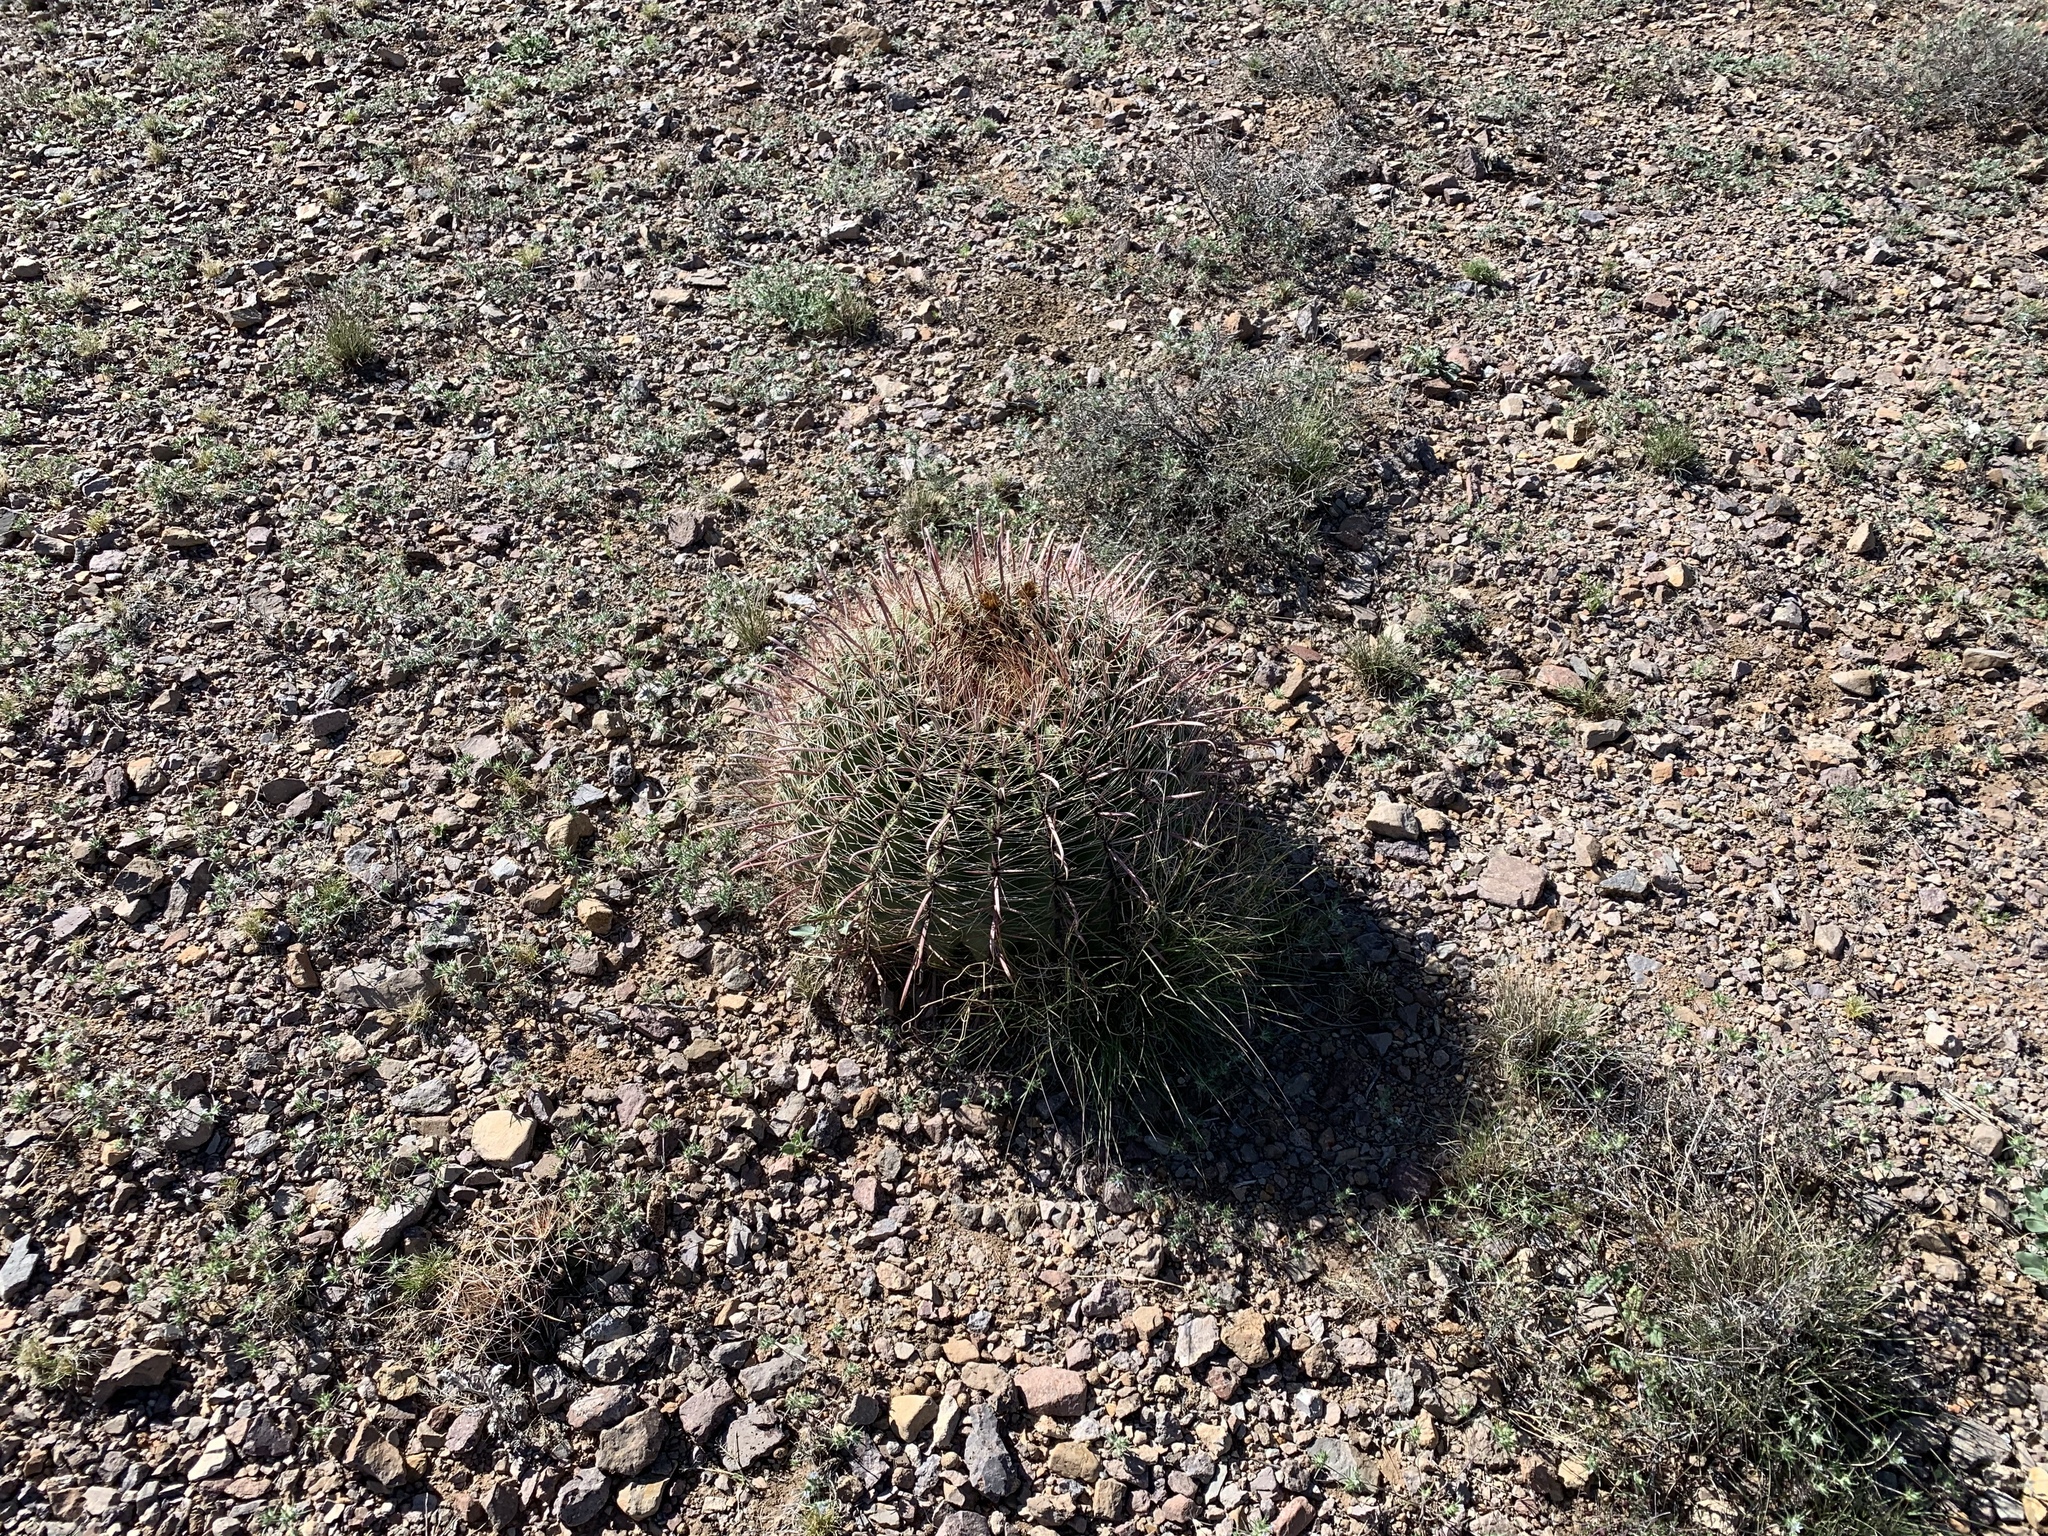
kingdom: Plantae
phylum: Tracheophyta
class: Magnoliopsida
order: Caryophyllales
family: Cactaceae
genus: Ferocactus
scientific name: Ferocactus wislizeni
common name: Candy barrel cactus
